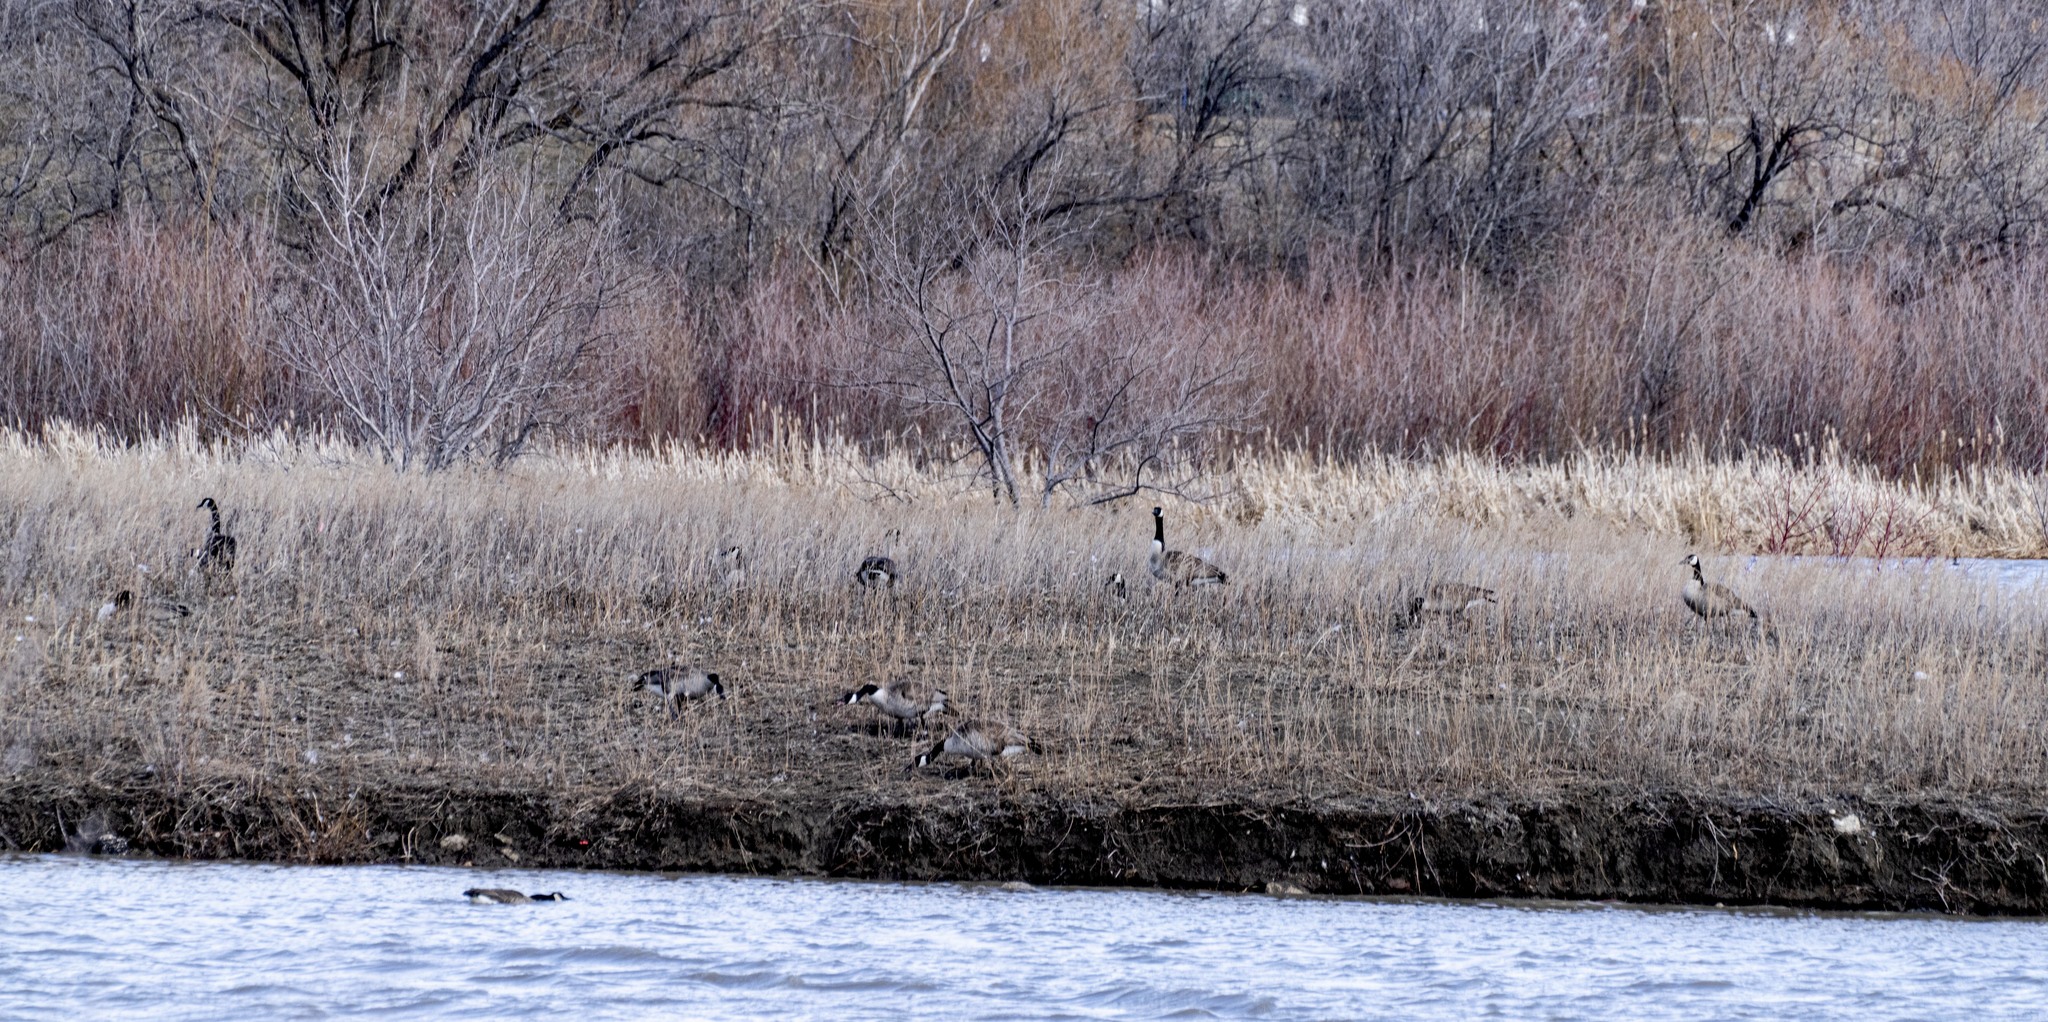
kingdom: Animalia
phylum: Chordata
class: Aves
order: Anseriformes
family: Anatidae
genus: Branta
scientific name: Branta canadensis
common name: Canada goose
